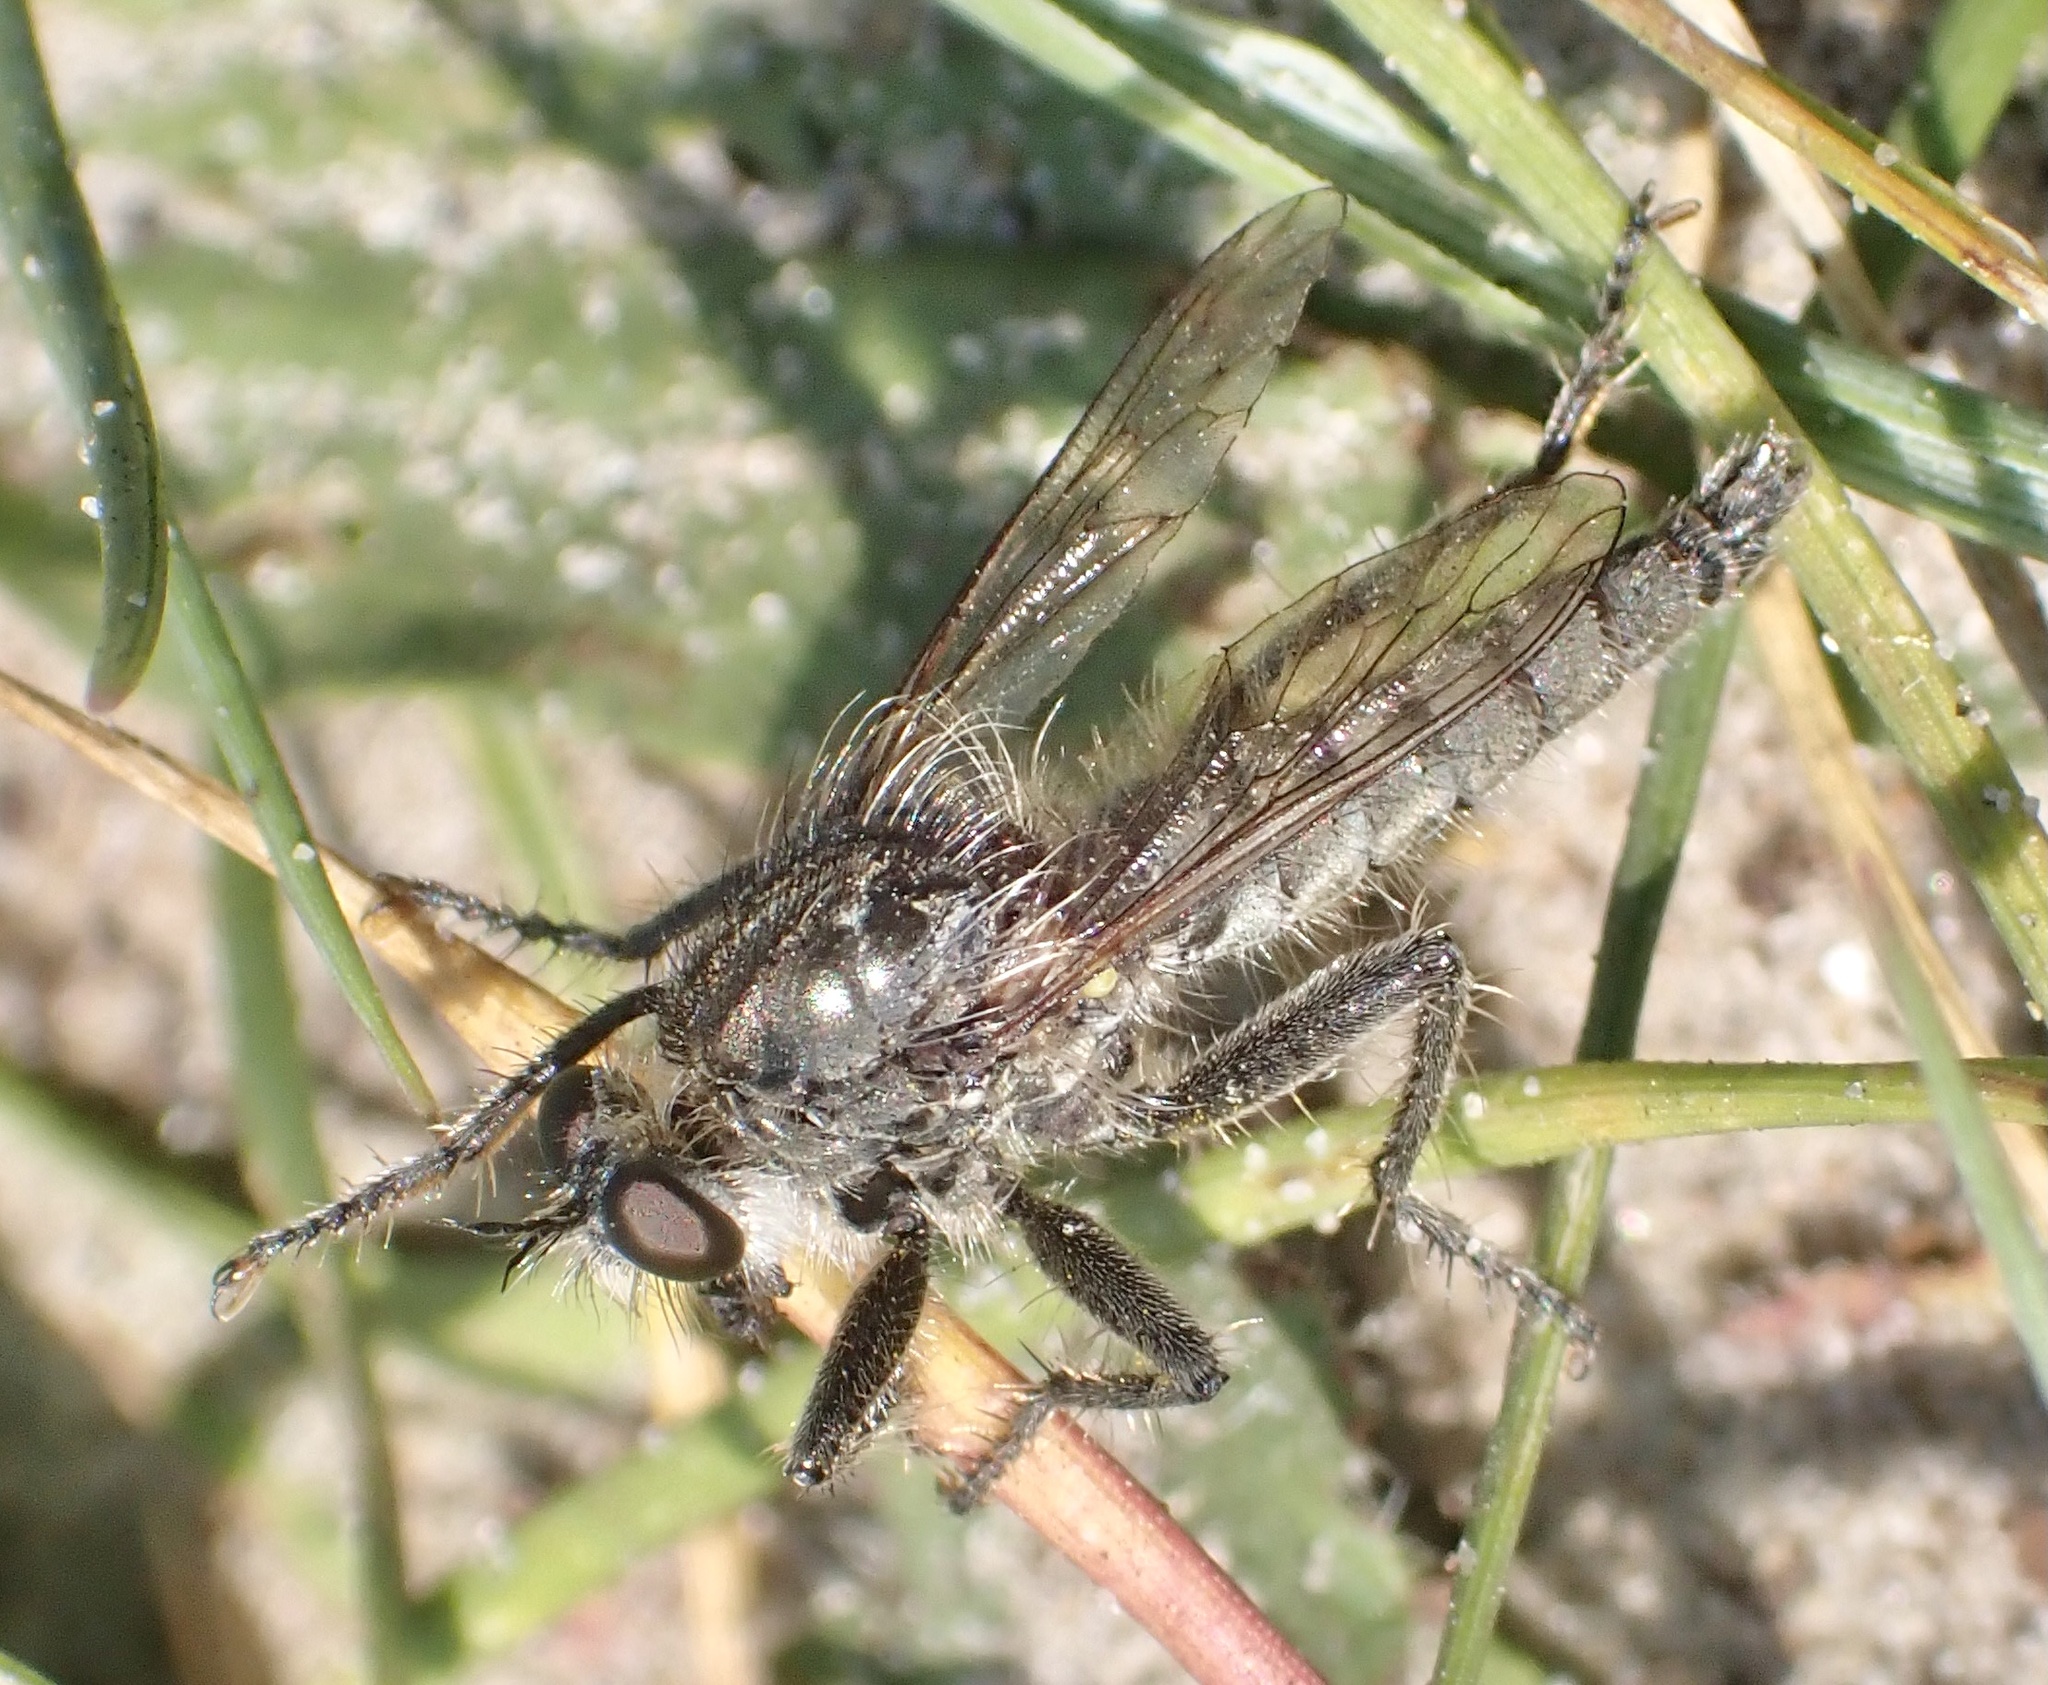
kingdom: Animalia
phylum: Arthropoda
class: Insecta
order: Diptera
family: Asilidae
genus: Dysmachus
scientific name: Dysmachus trigonus
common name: Fan-bristled robberfly
